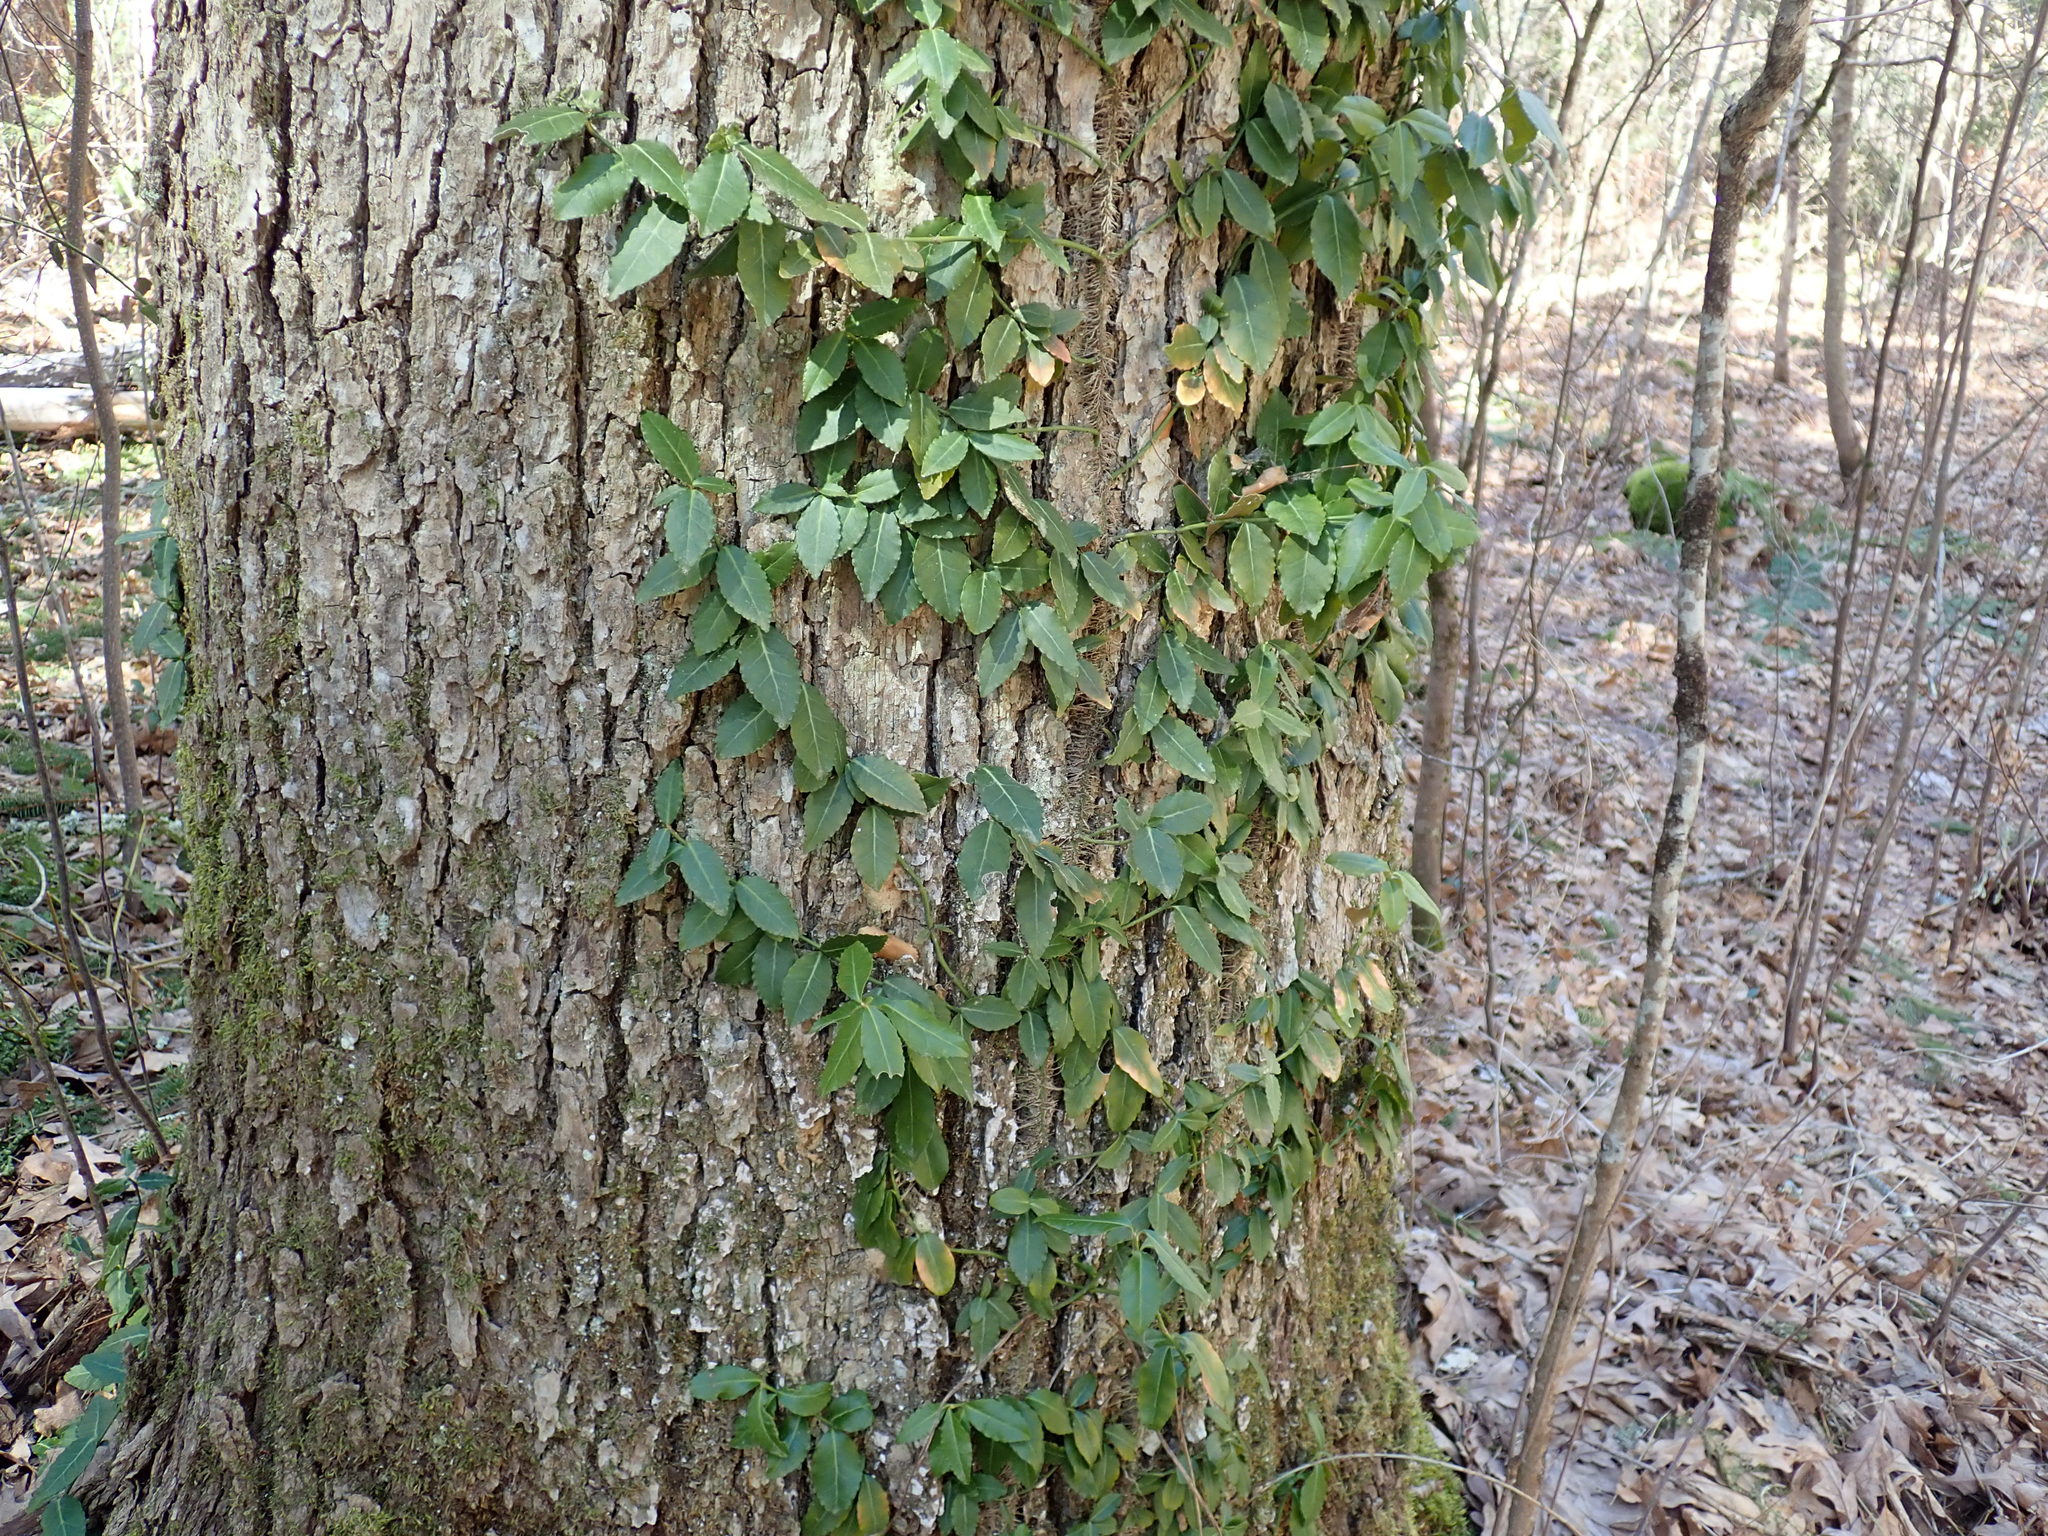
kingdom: Plantae
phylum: Tracheophyta
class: Magnoliopsida
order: Celastrales
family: Celastraceae
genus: Euonymus
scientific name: Euonymus fortunei
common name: Climbing euonymus
